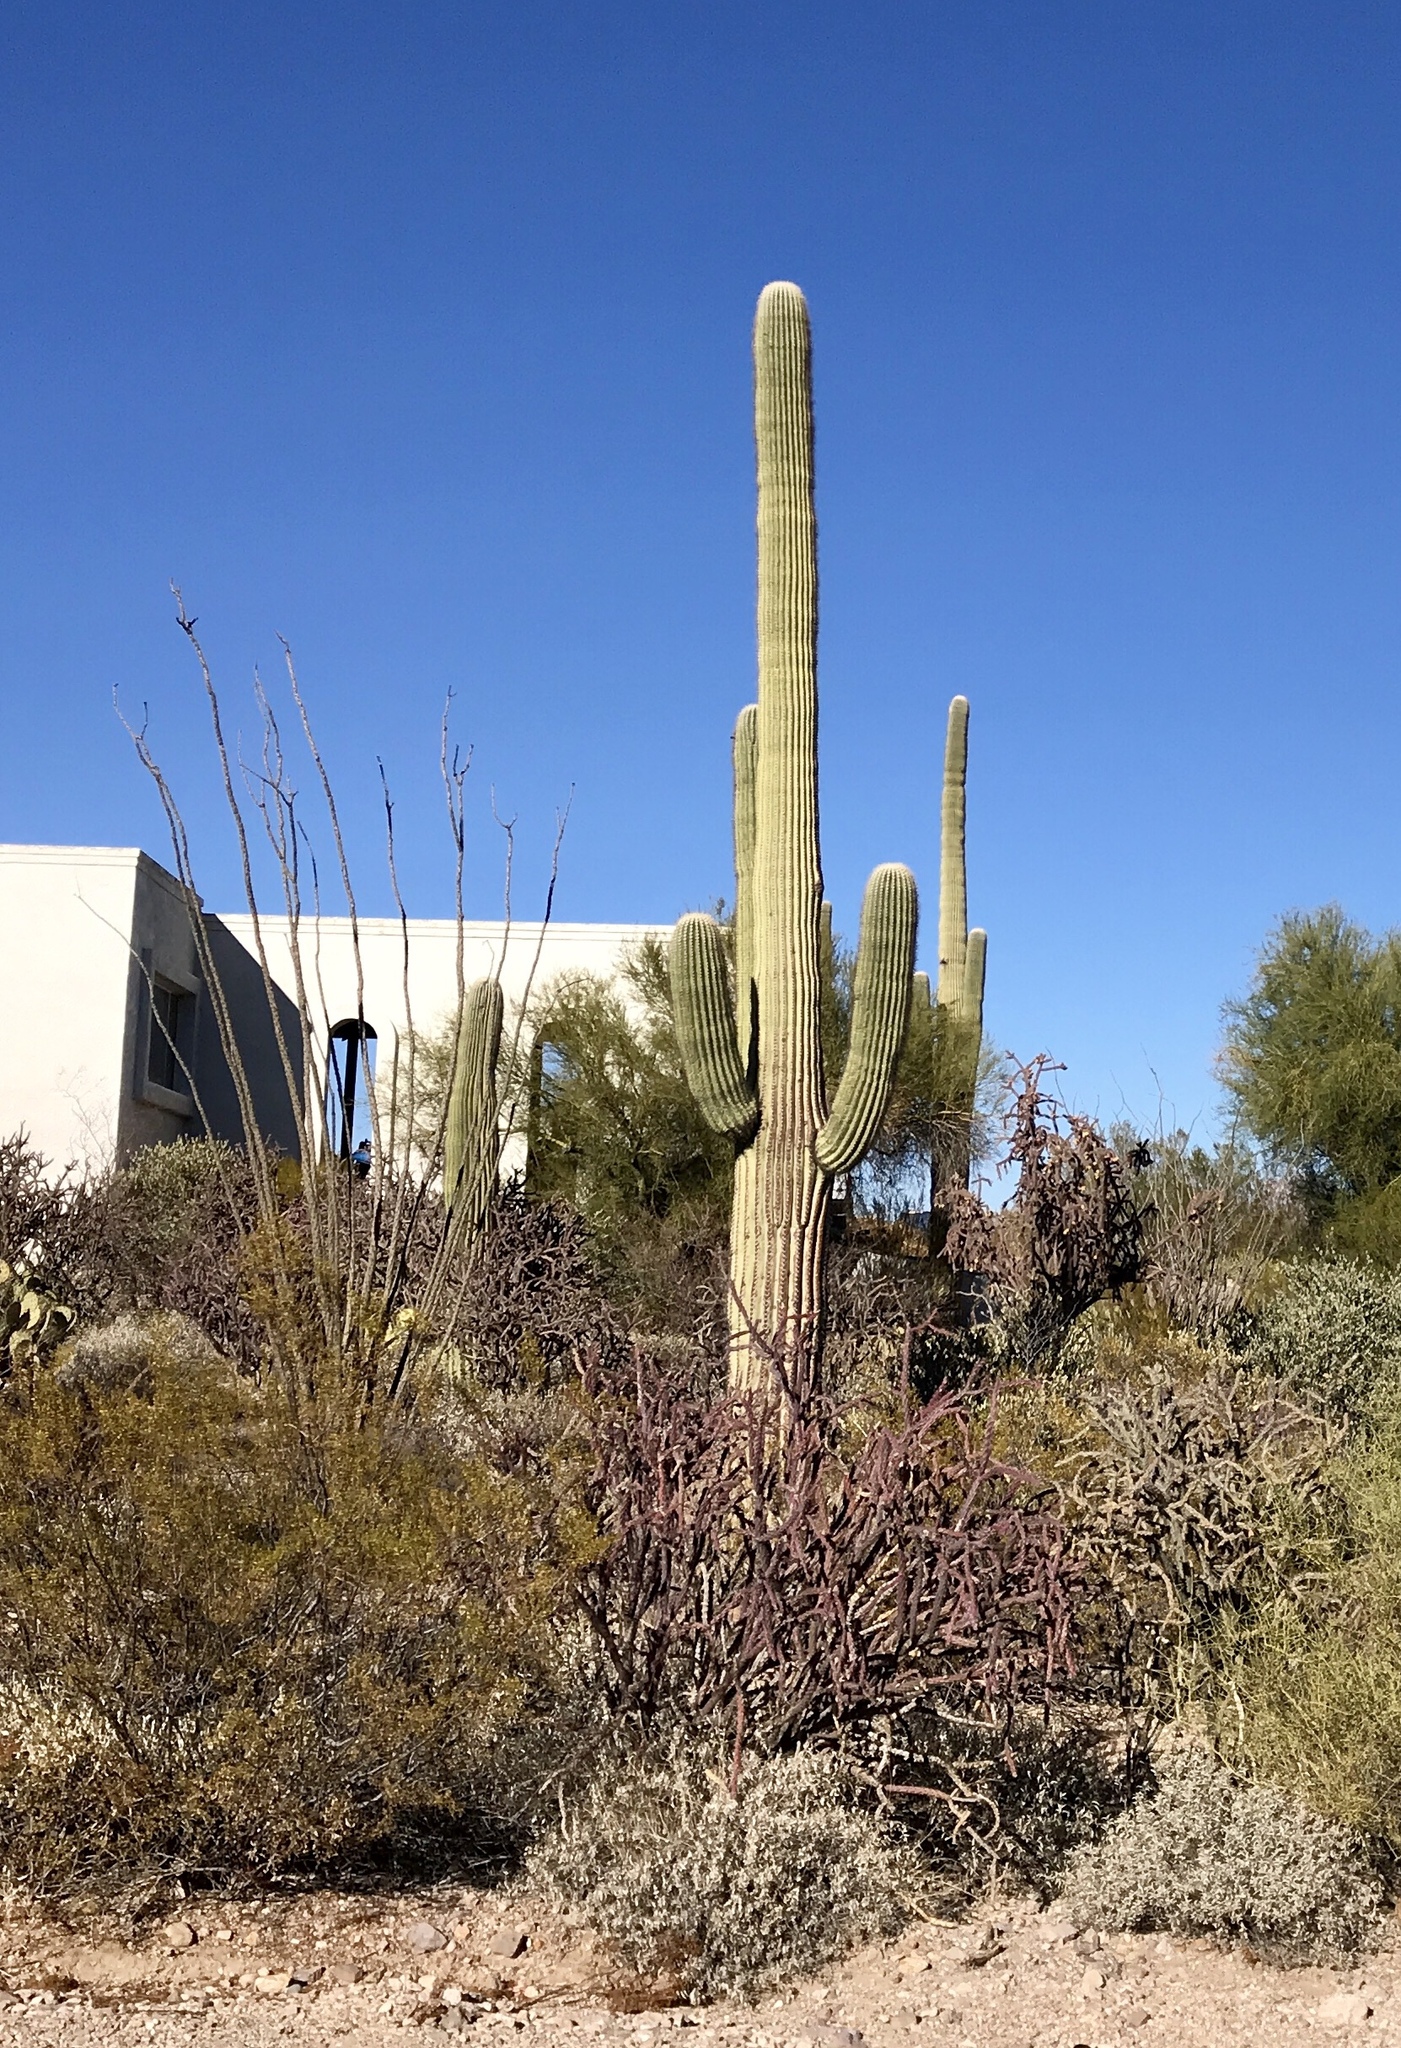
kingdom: Plantae
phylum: Tracheophyta
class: Magnoliopsida
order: Caryophyllales
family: Cactaceae
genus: Carnegiea
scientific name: Carnegiea gigantea
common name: Saguaro
